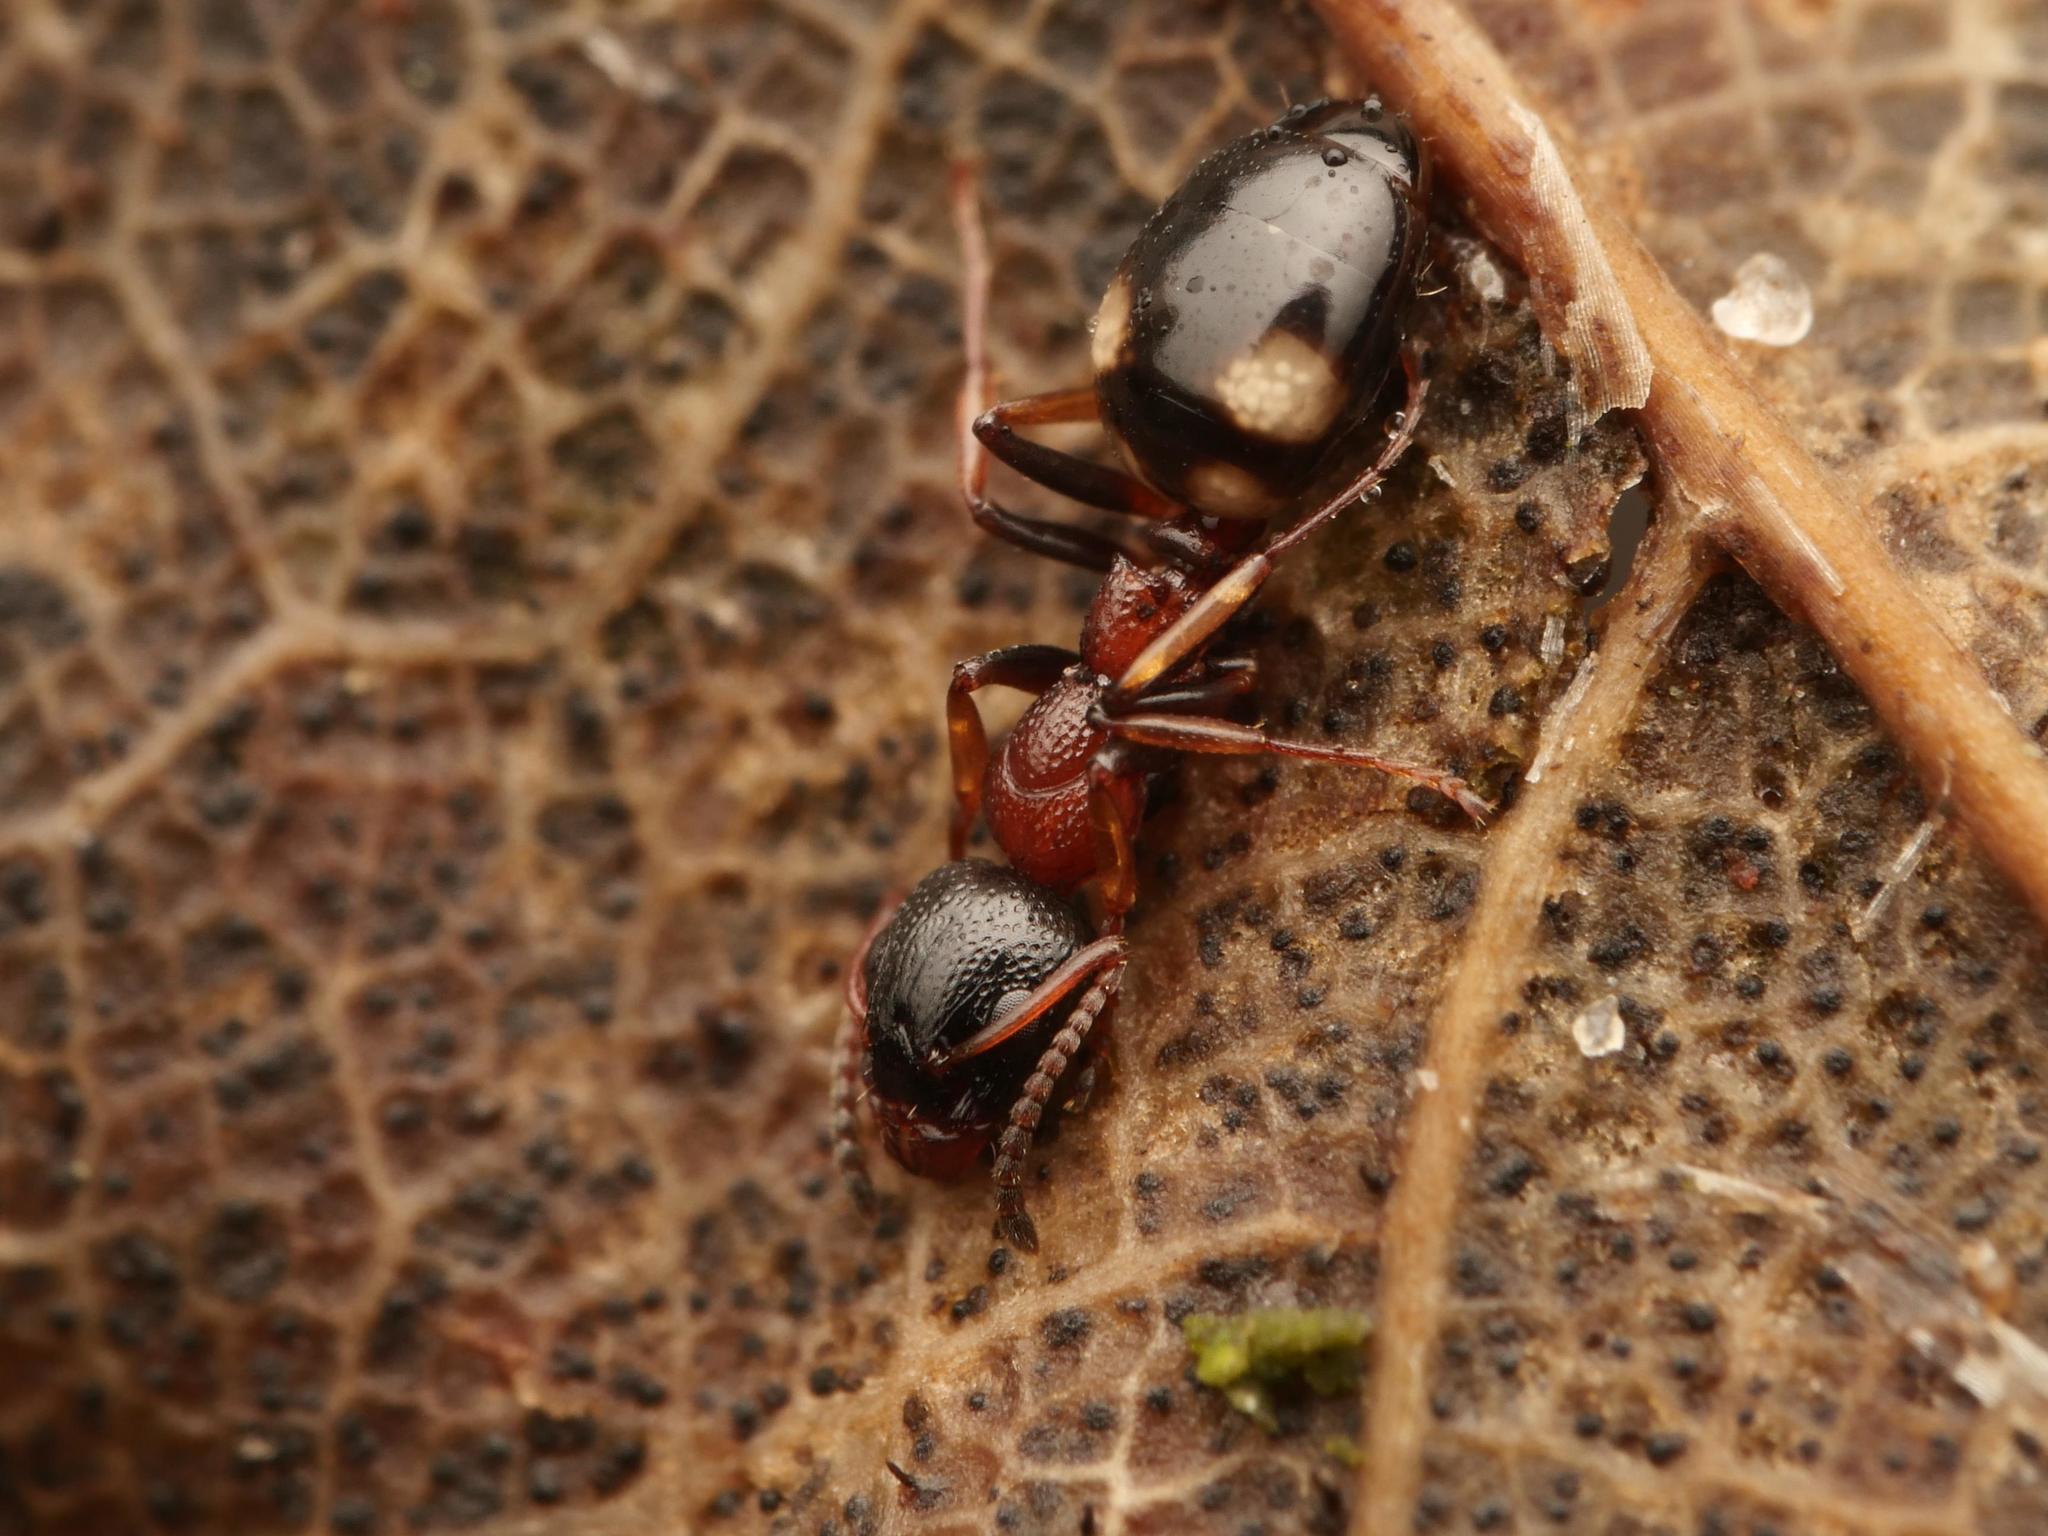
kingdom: Animalia
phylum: Arthropoda
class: Insecta
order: Hymenoptera
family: Formicidae
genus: Dolichoderus
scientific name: Dolichoderus quadripunctatus
